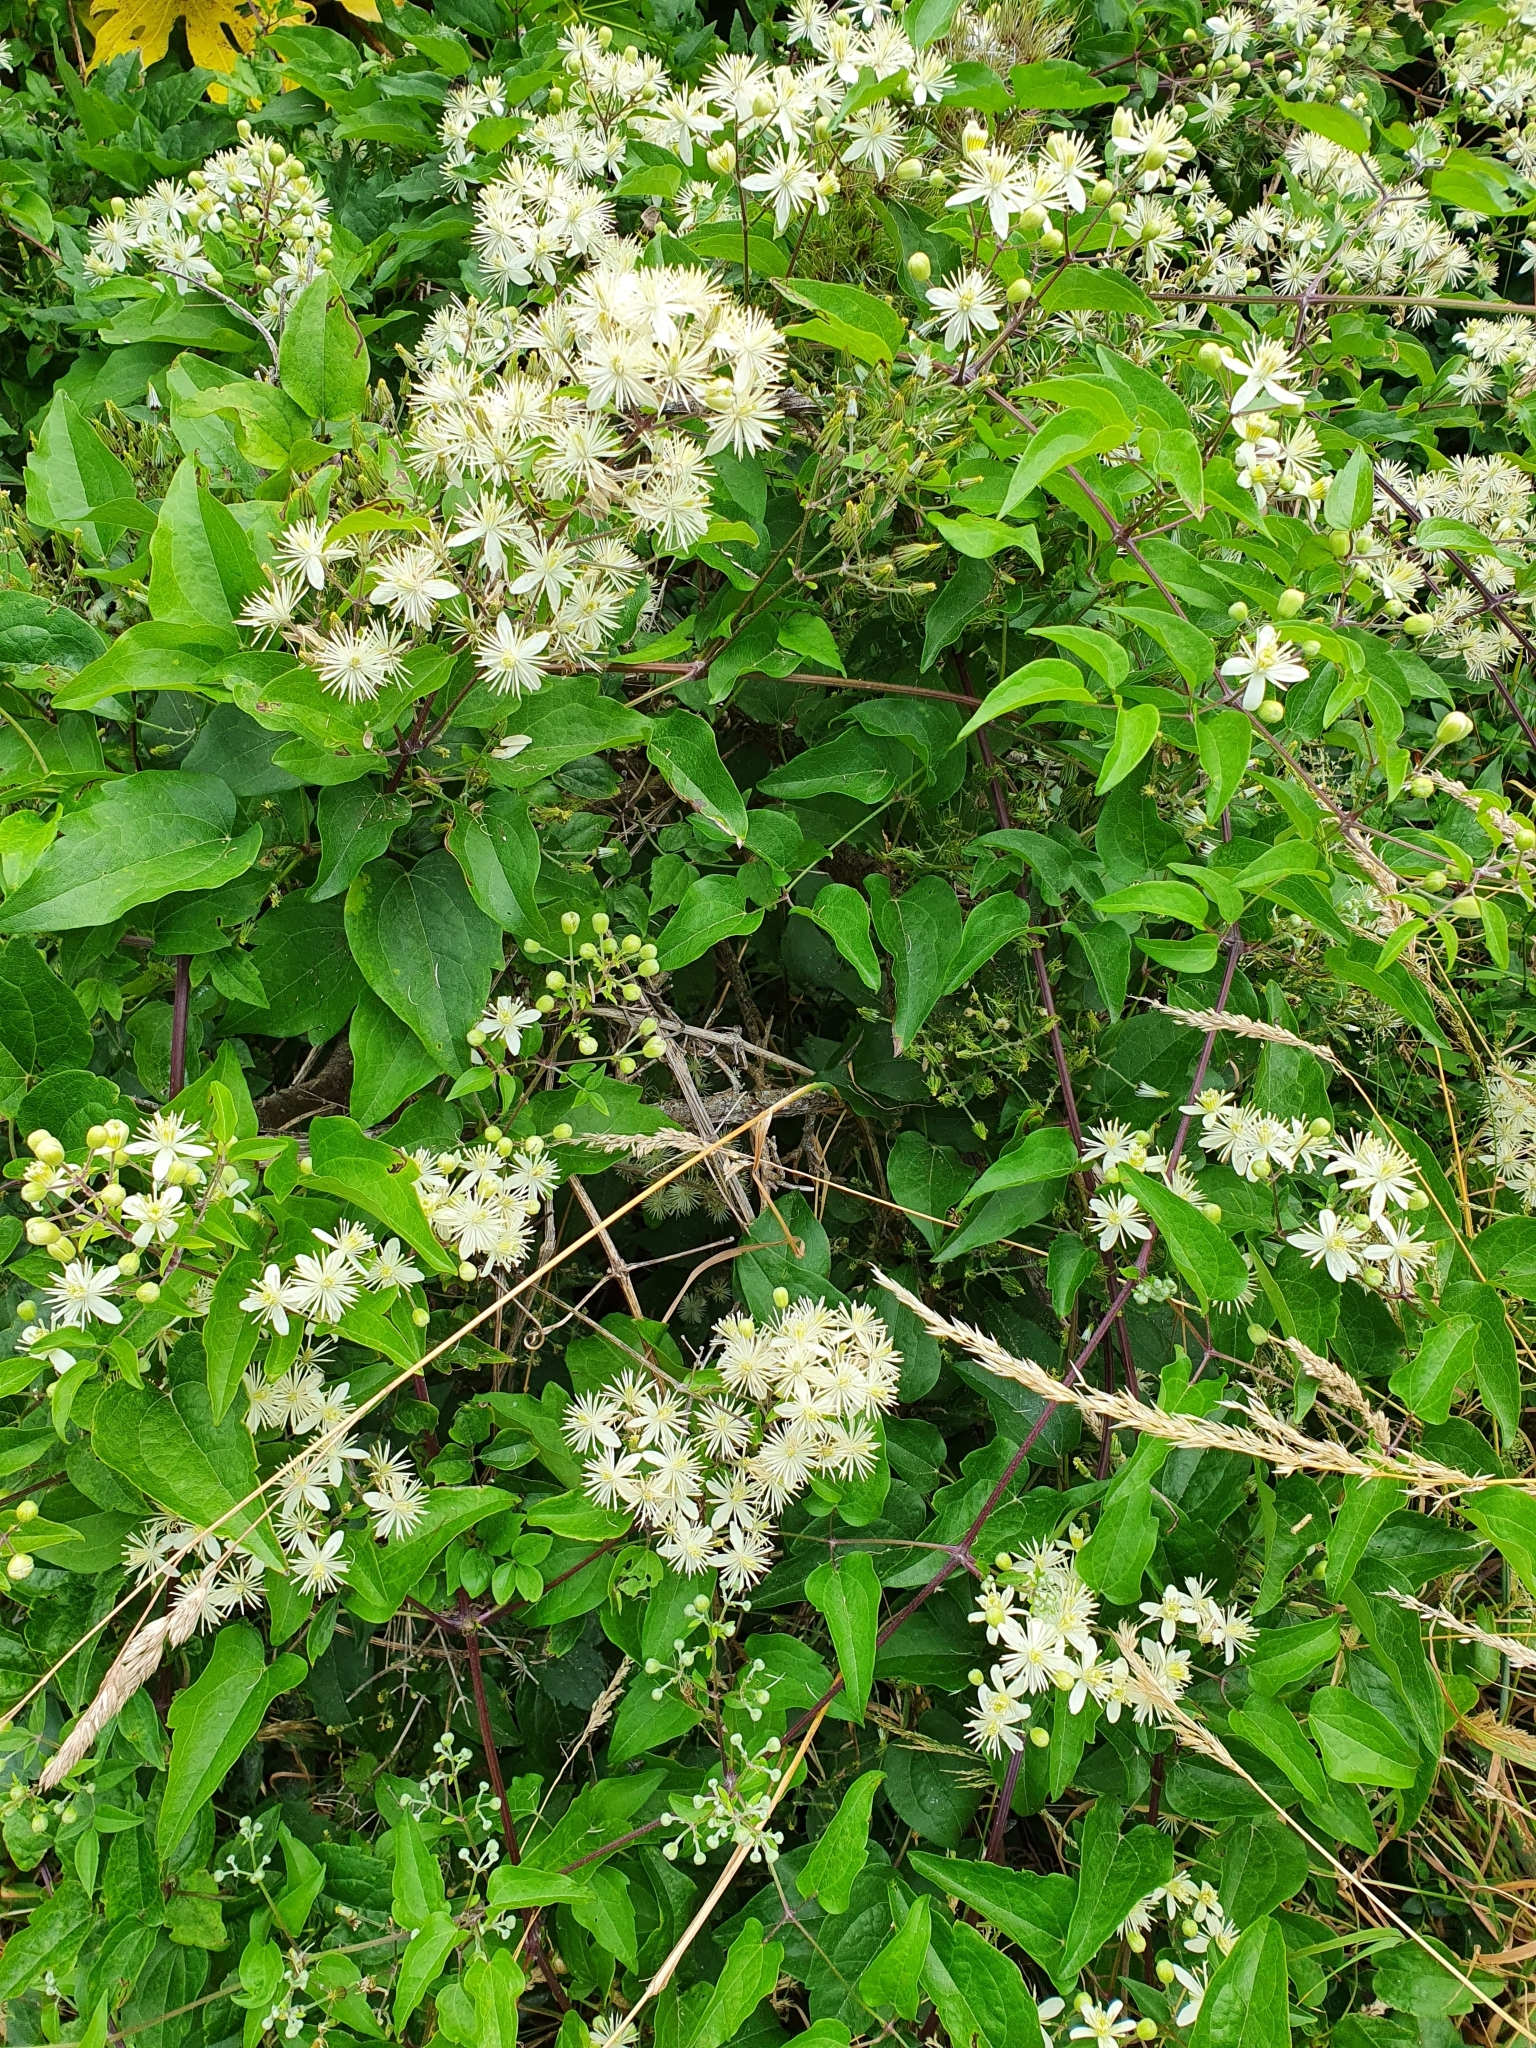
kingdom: Plantae
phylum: Tracheophyta
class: Magnoliopsida
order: Ranunculales
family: Ranunculaceae
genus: Clematis
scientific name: Clematis vitalba
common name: Evergreen clematis
